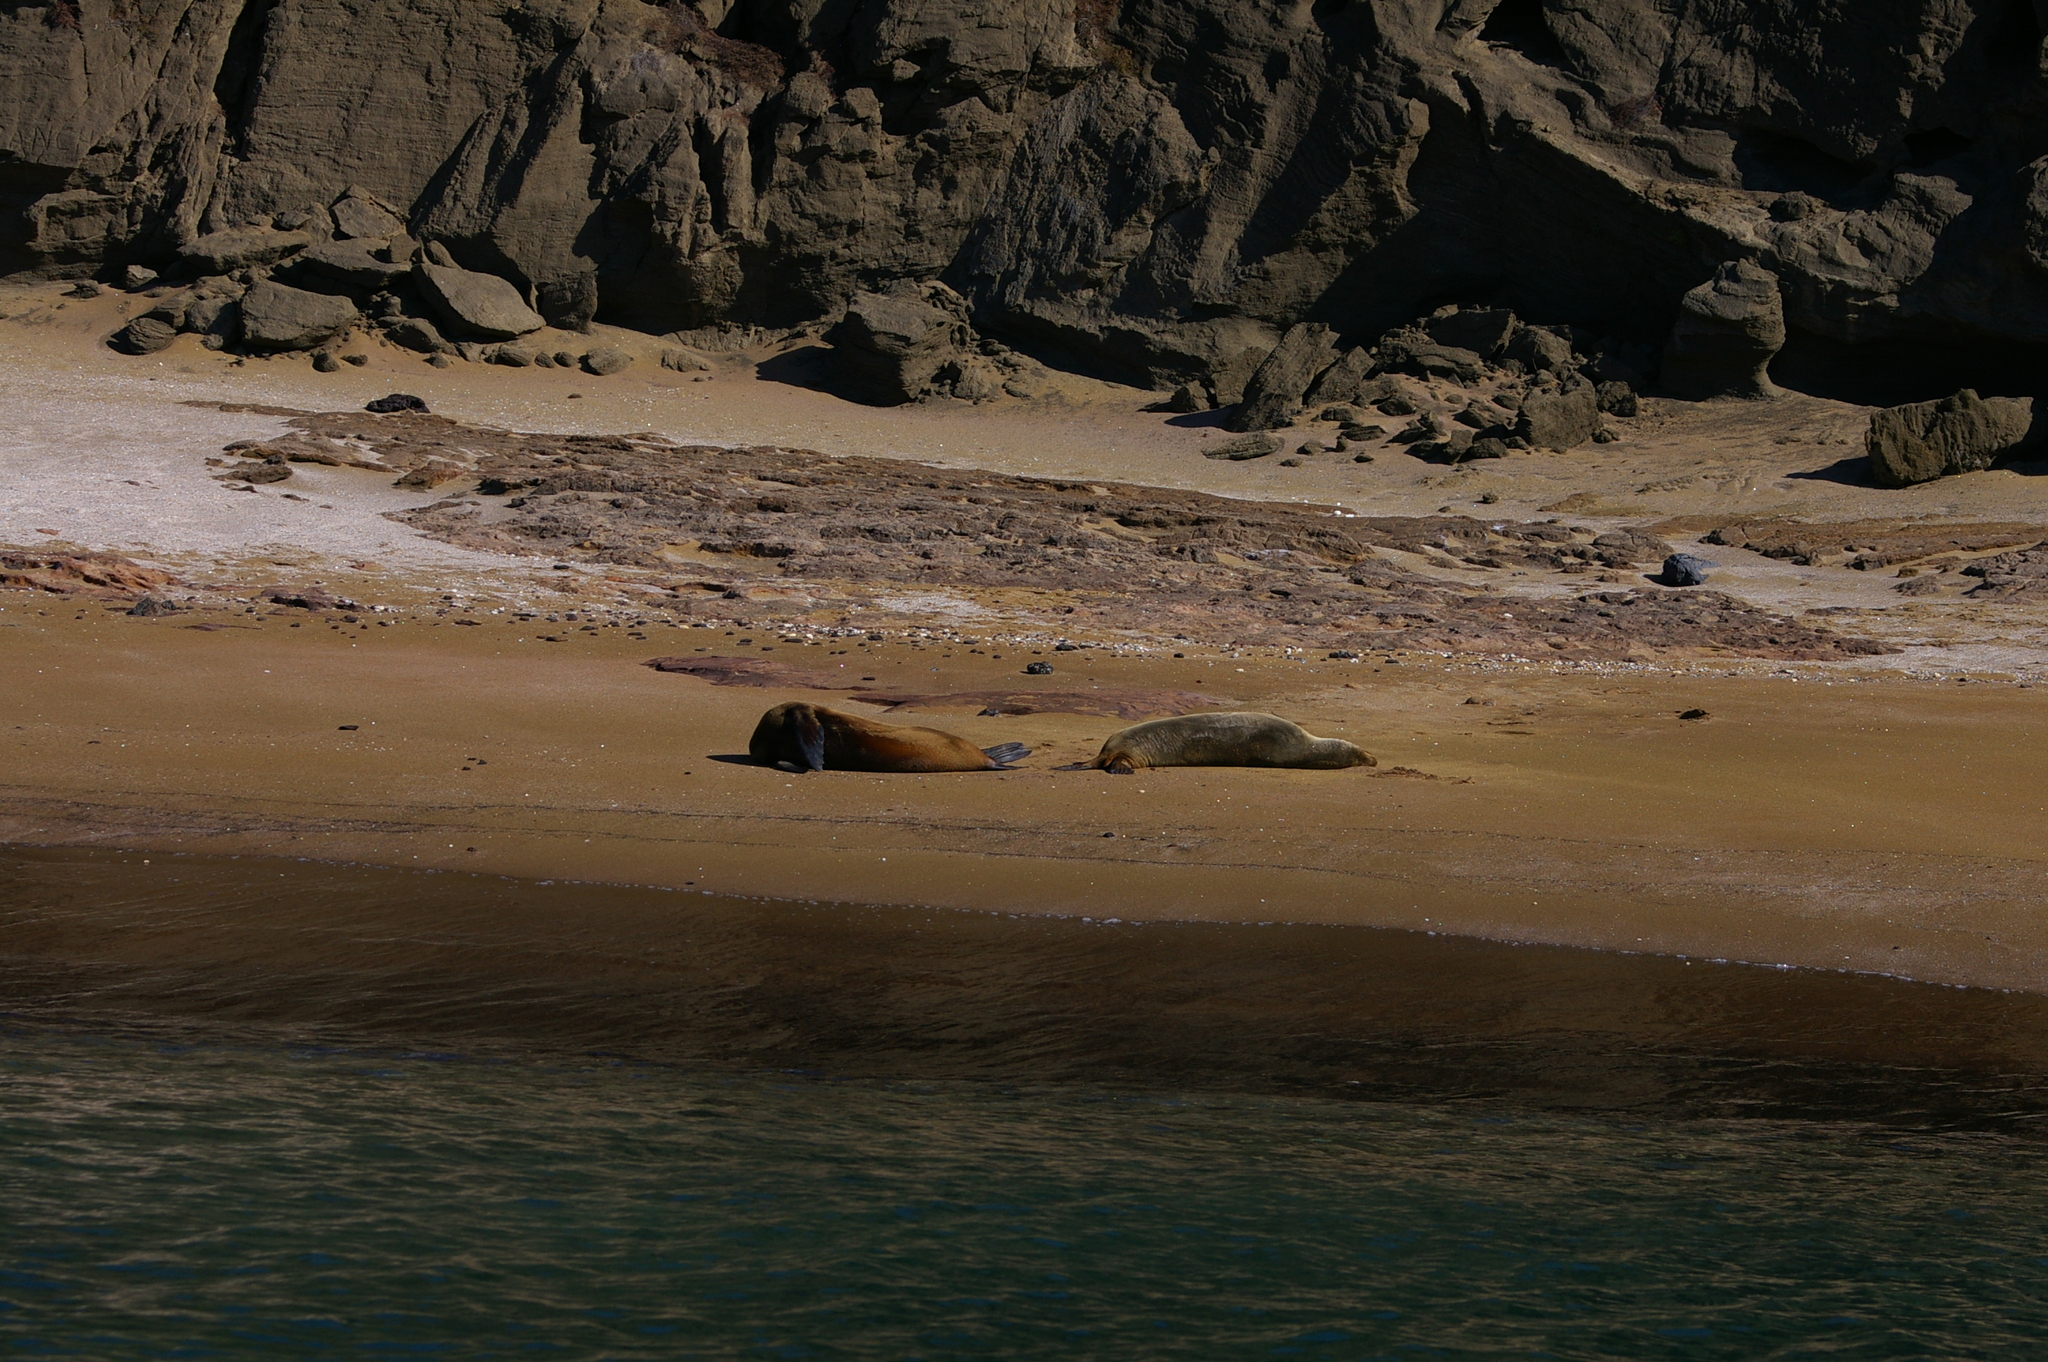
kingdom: Animalia
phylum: Chordata
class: Mammalia
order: Carnivora
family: Otariidae
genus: Zalophus
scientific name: Zalophus wollebaeki
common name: Galapagos sea lion
